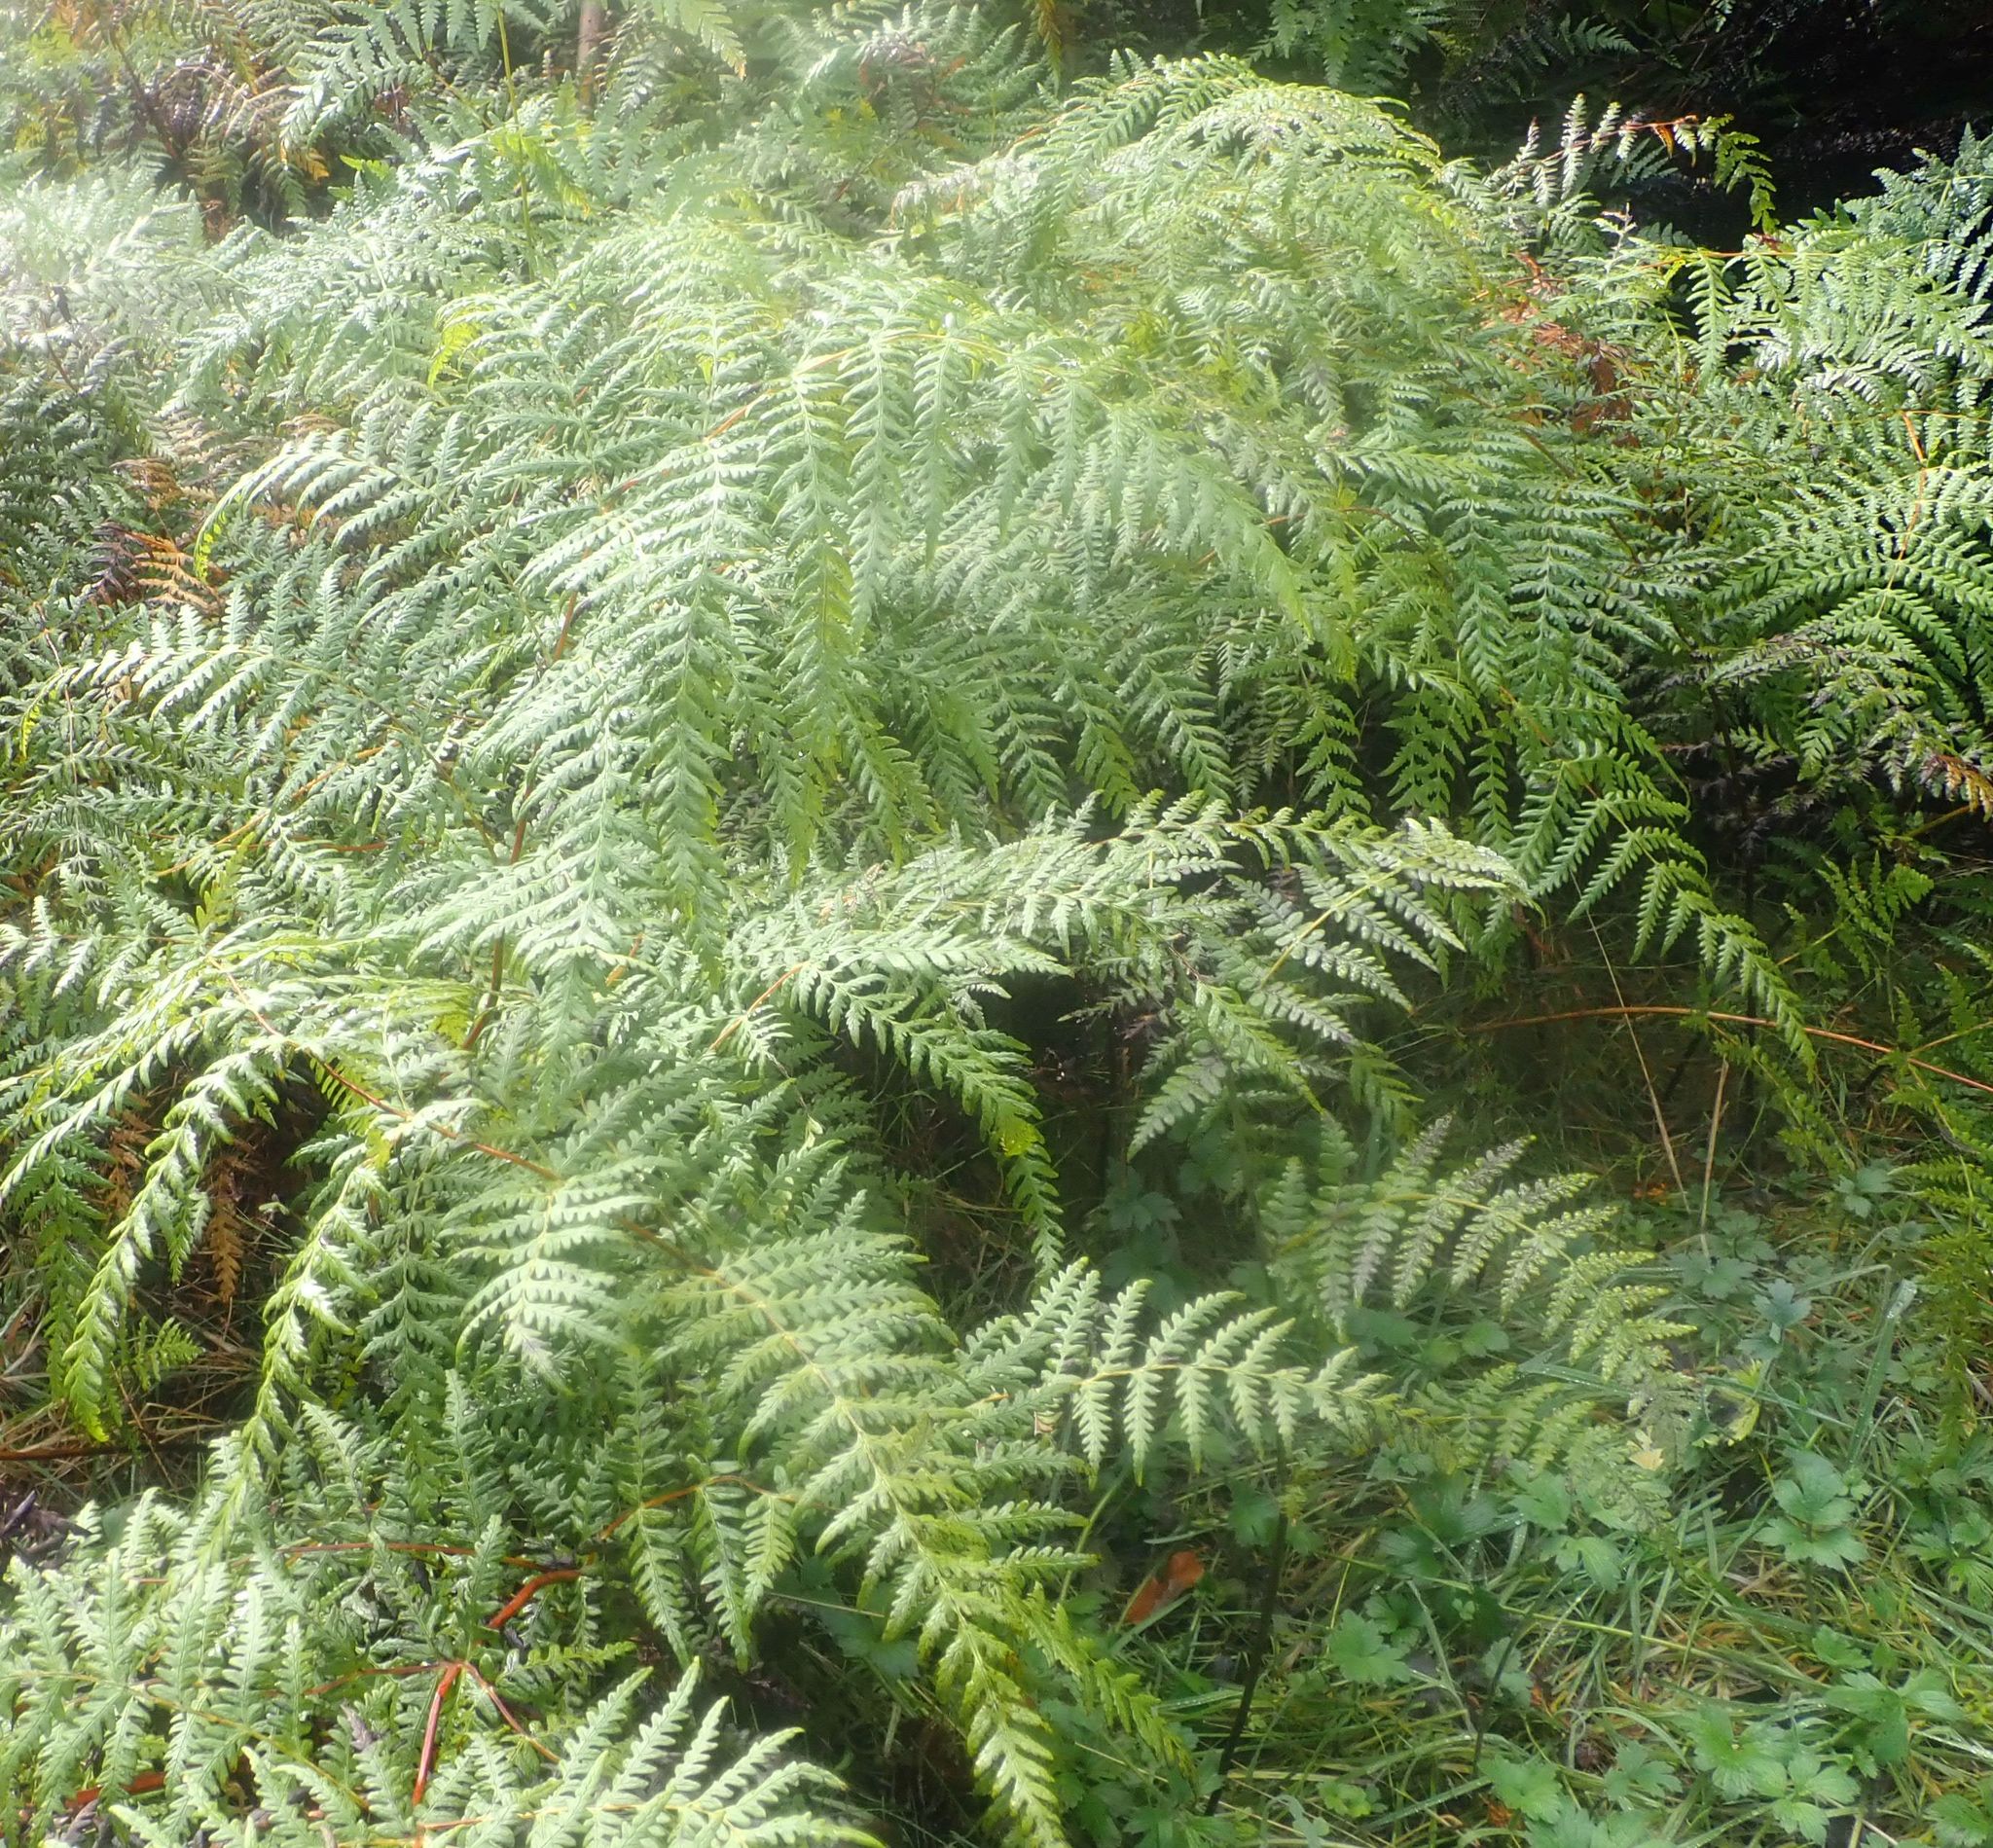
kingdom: Plantae
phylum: Tracheophyta
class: Polypodiopsida
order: Polypodiales
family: Dennstaedtiaceae
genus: Histiopteris
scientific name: Histiopteris incisa
